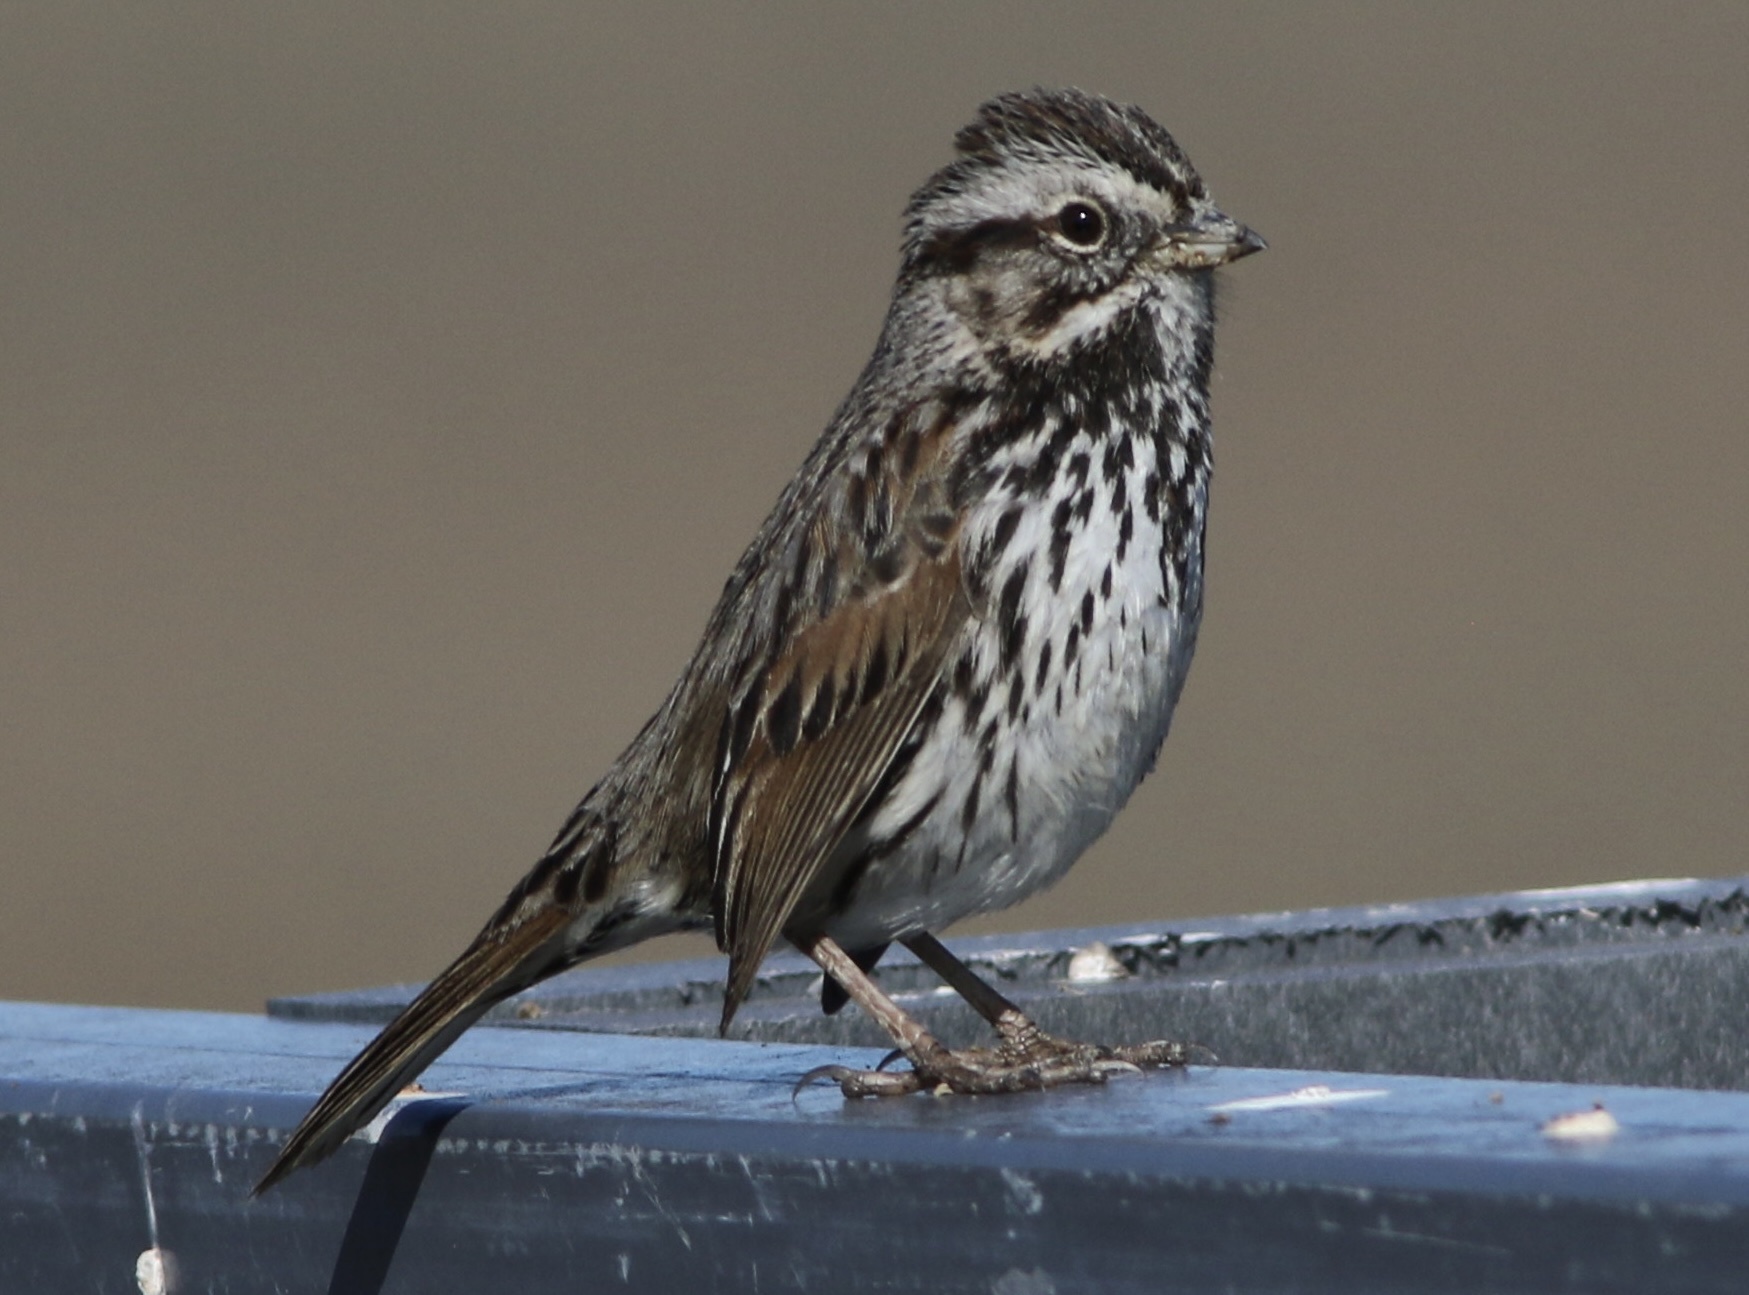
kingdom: Animalia
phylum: Chordata
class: Aves
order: Passeriformes
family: Passerellidae
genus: Melospiza
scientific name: Melospiza melodia
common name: Song sparrow
